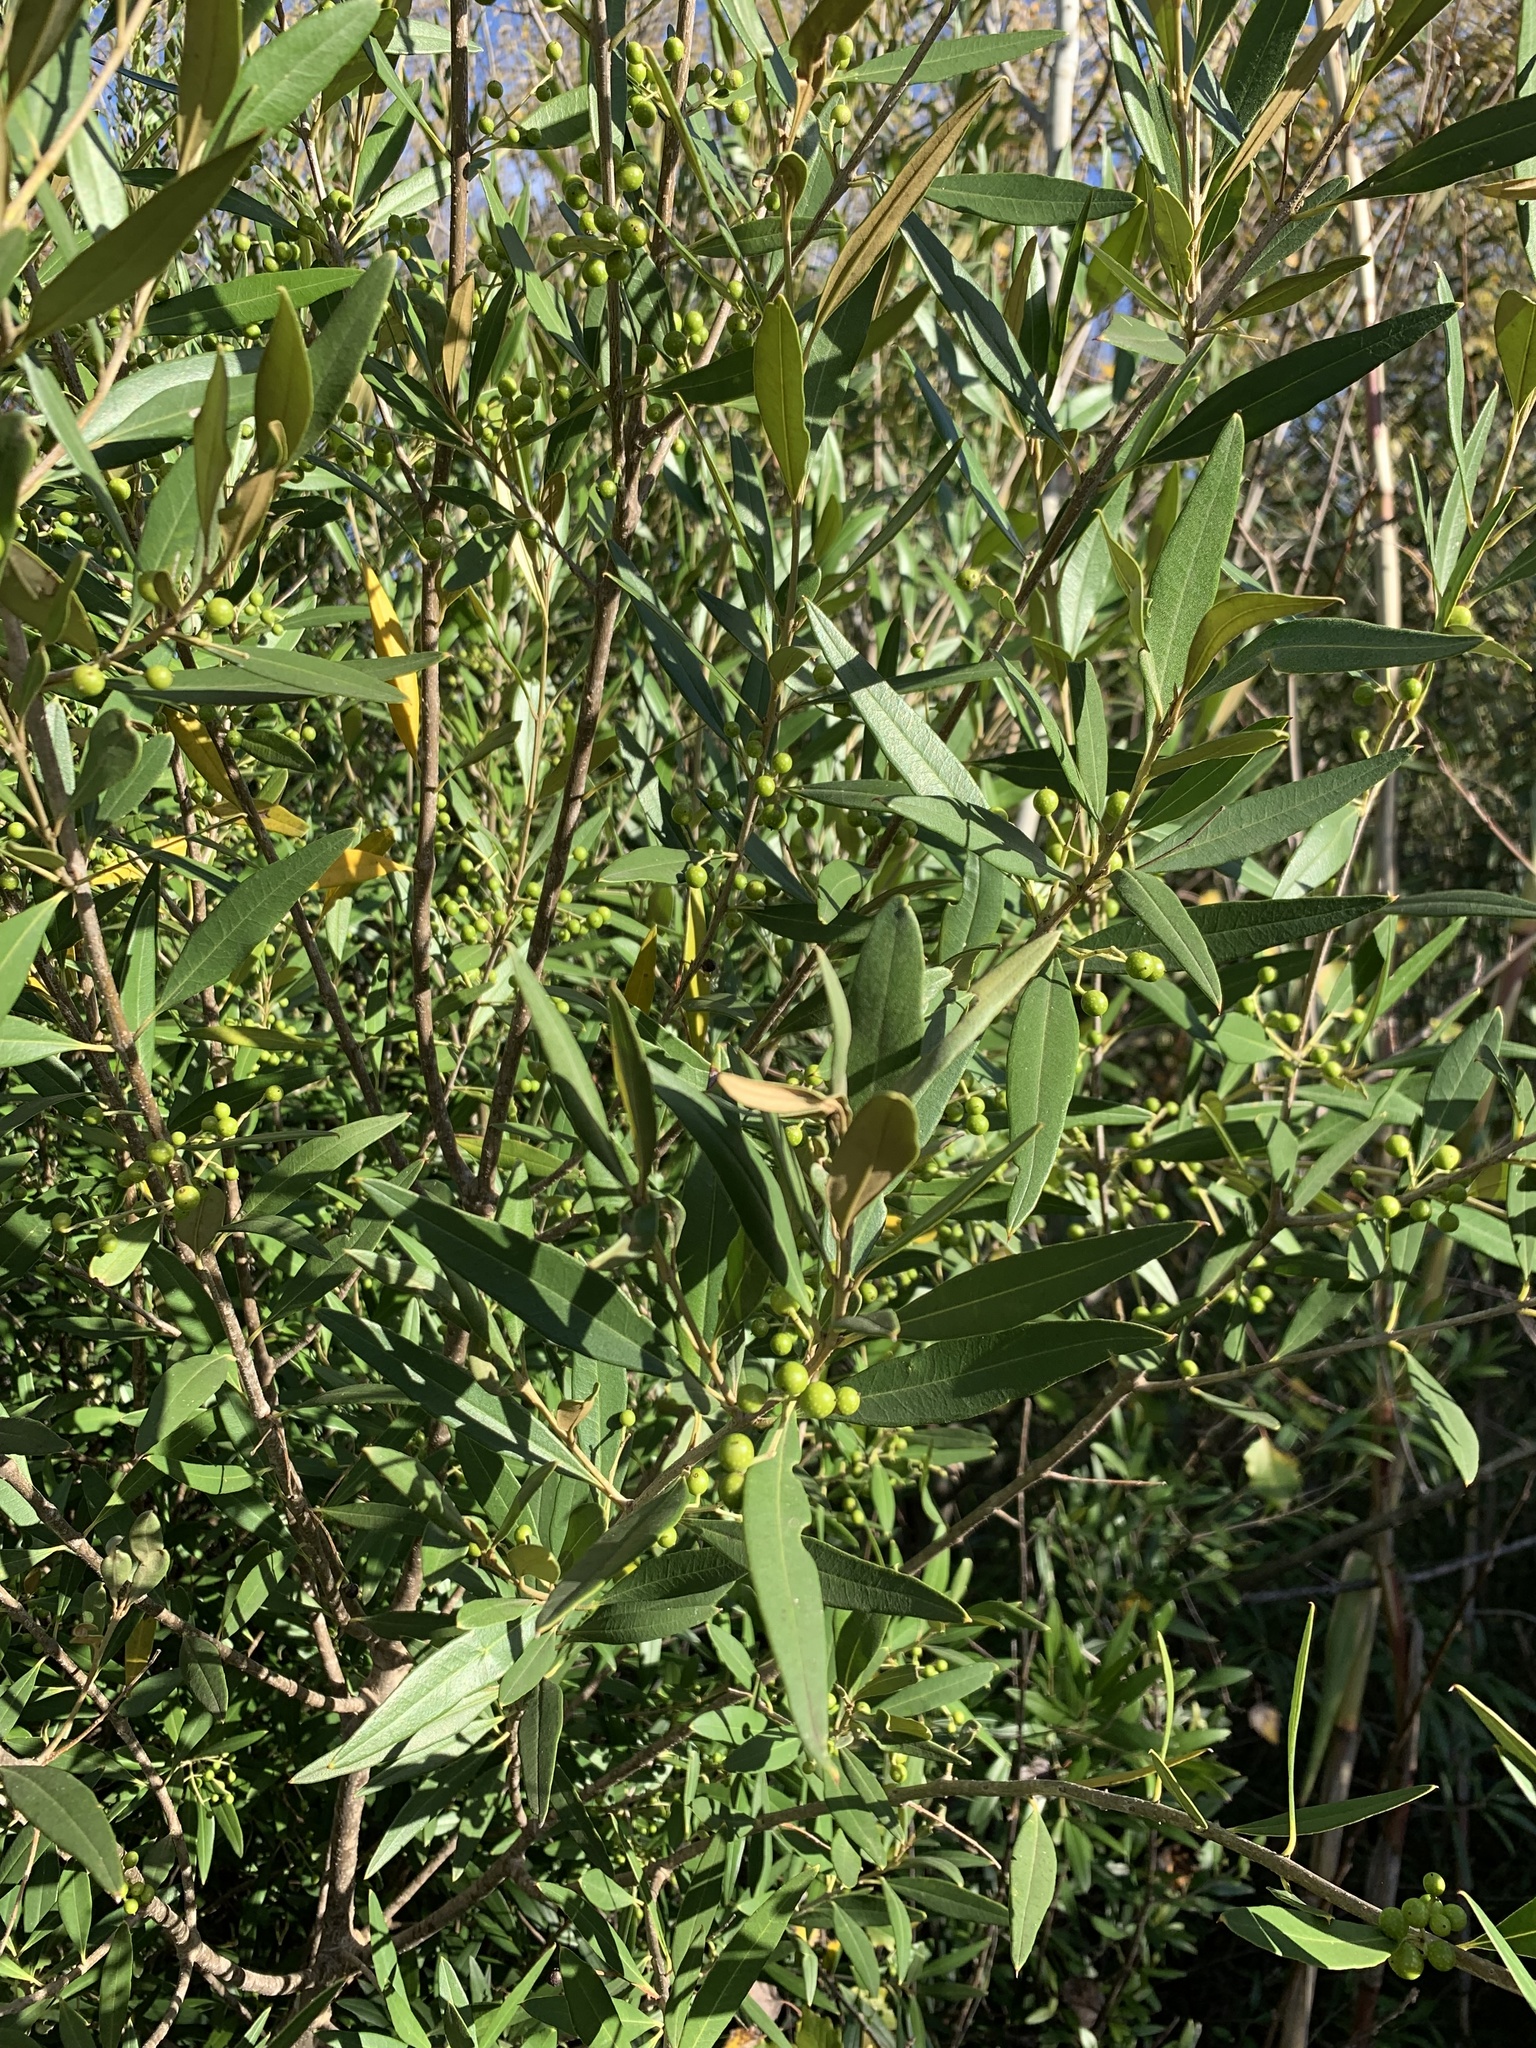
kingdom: Plantae
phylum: Tracheophyta
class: Magnoliopsida
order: Lamiales
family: Oleaceae
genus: Olea
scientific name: Olea europaea
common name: Olive
